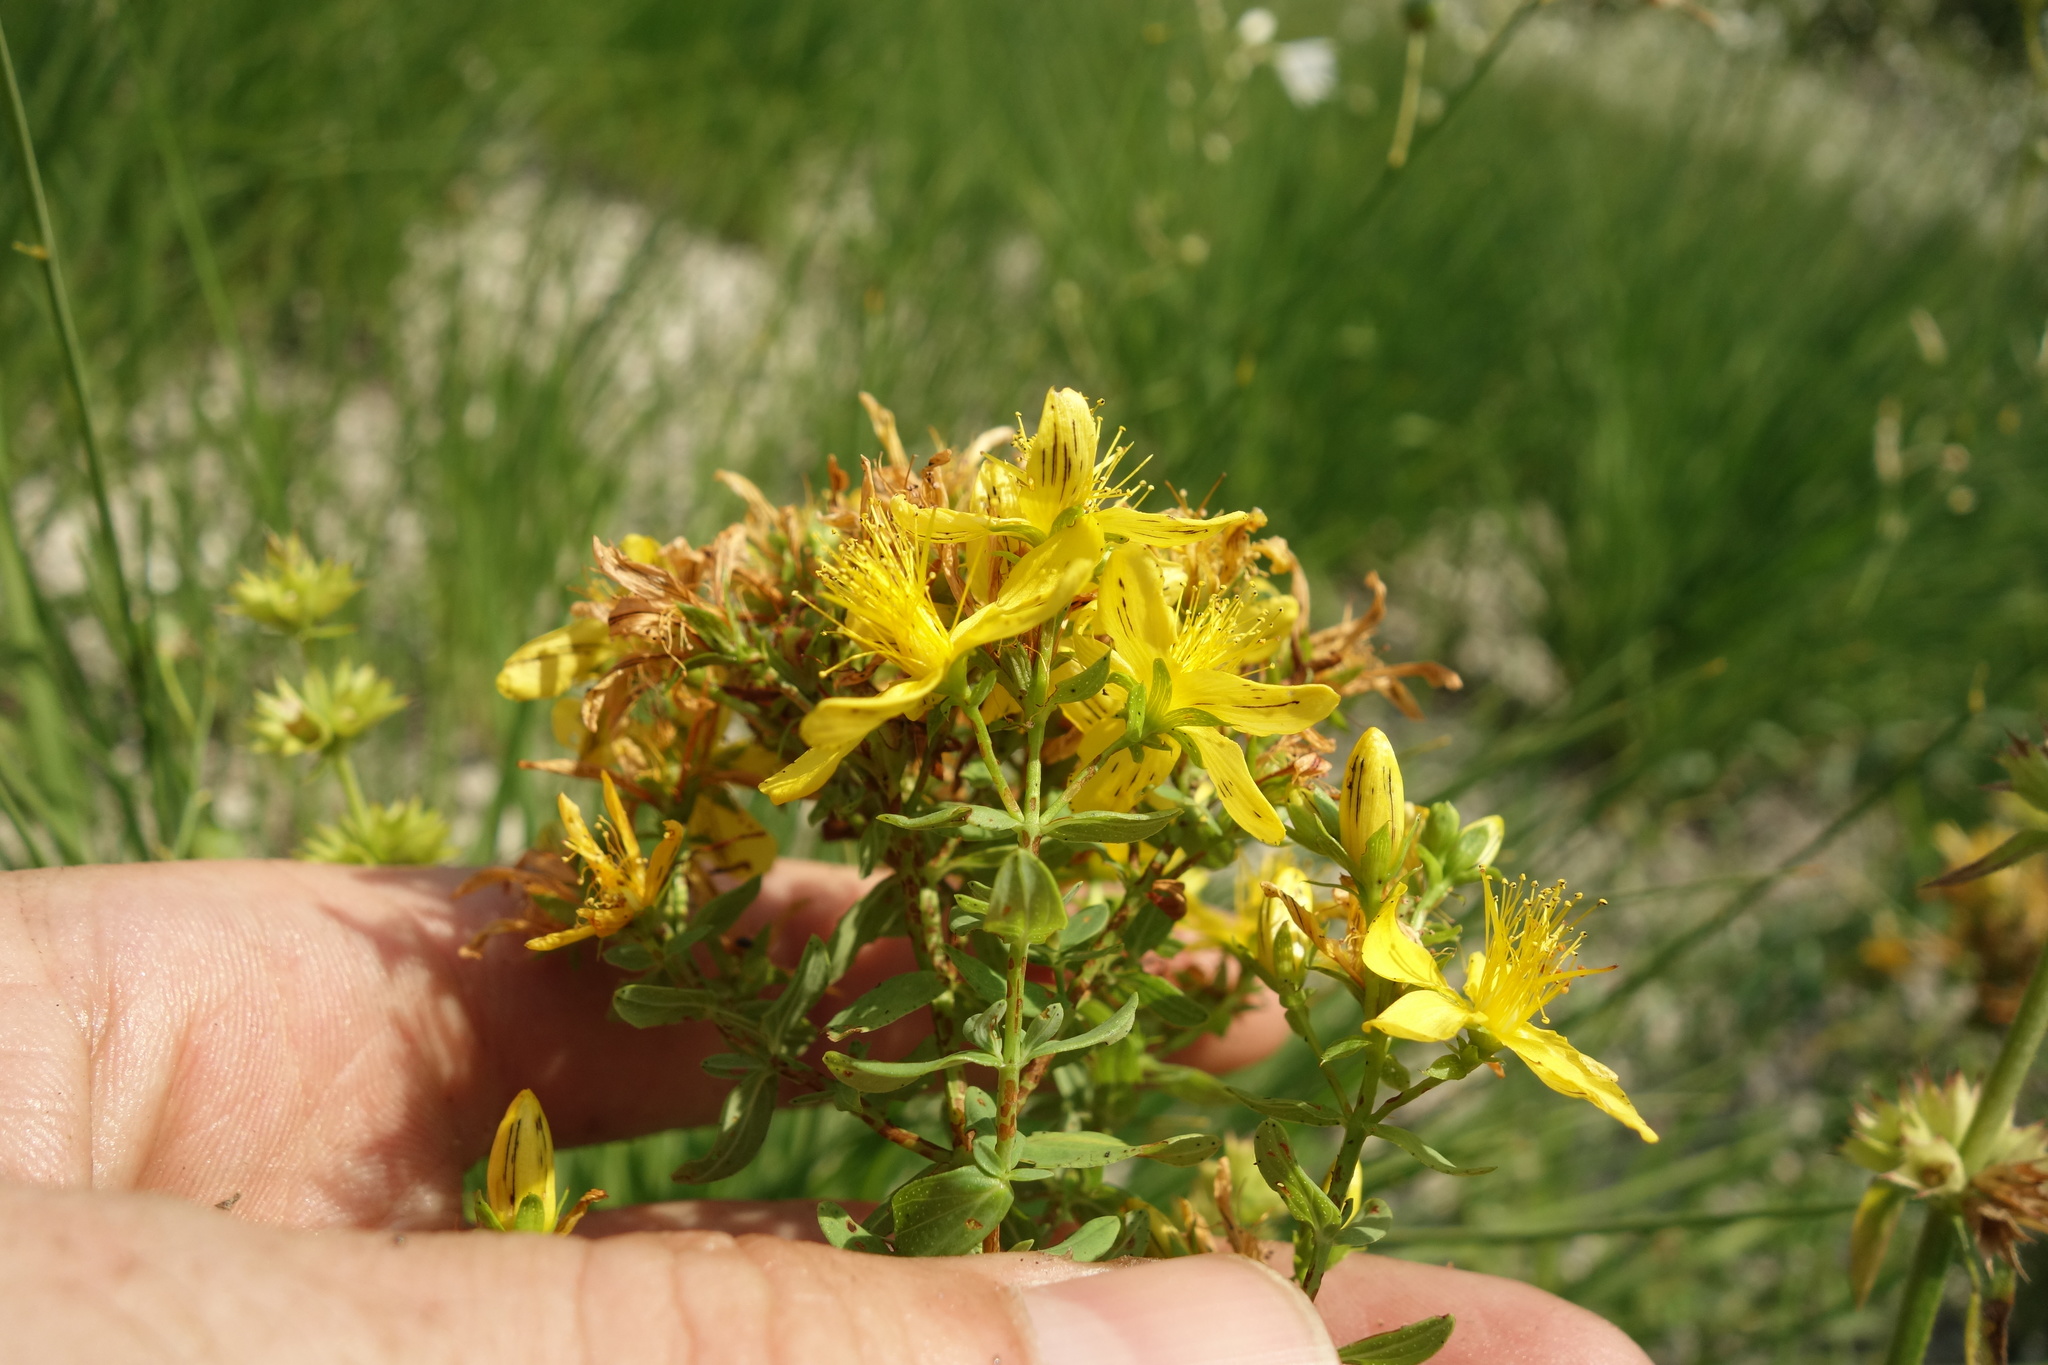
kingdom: Plantae
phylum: Tracheophyta
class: Magnoliopsida
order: Malpighiales
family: Hypericaceae
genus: Hypericum
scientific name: Hypericum perforatum
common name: Common st. johnswort
